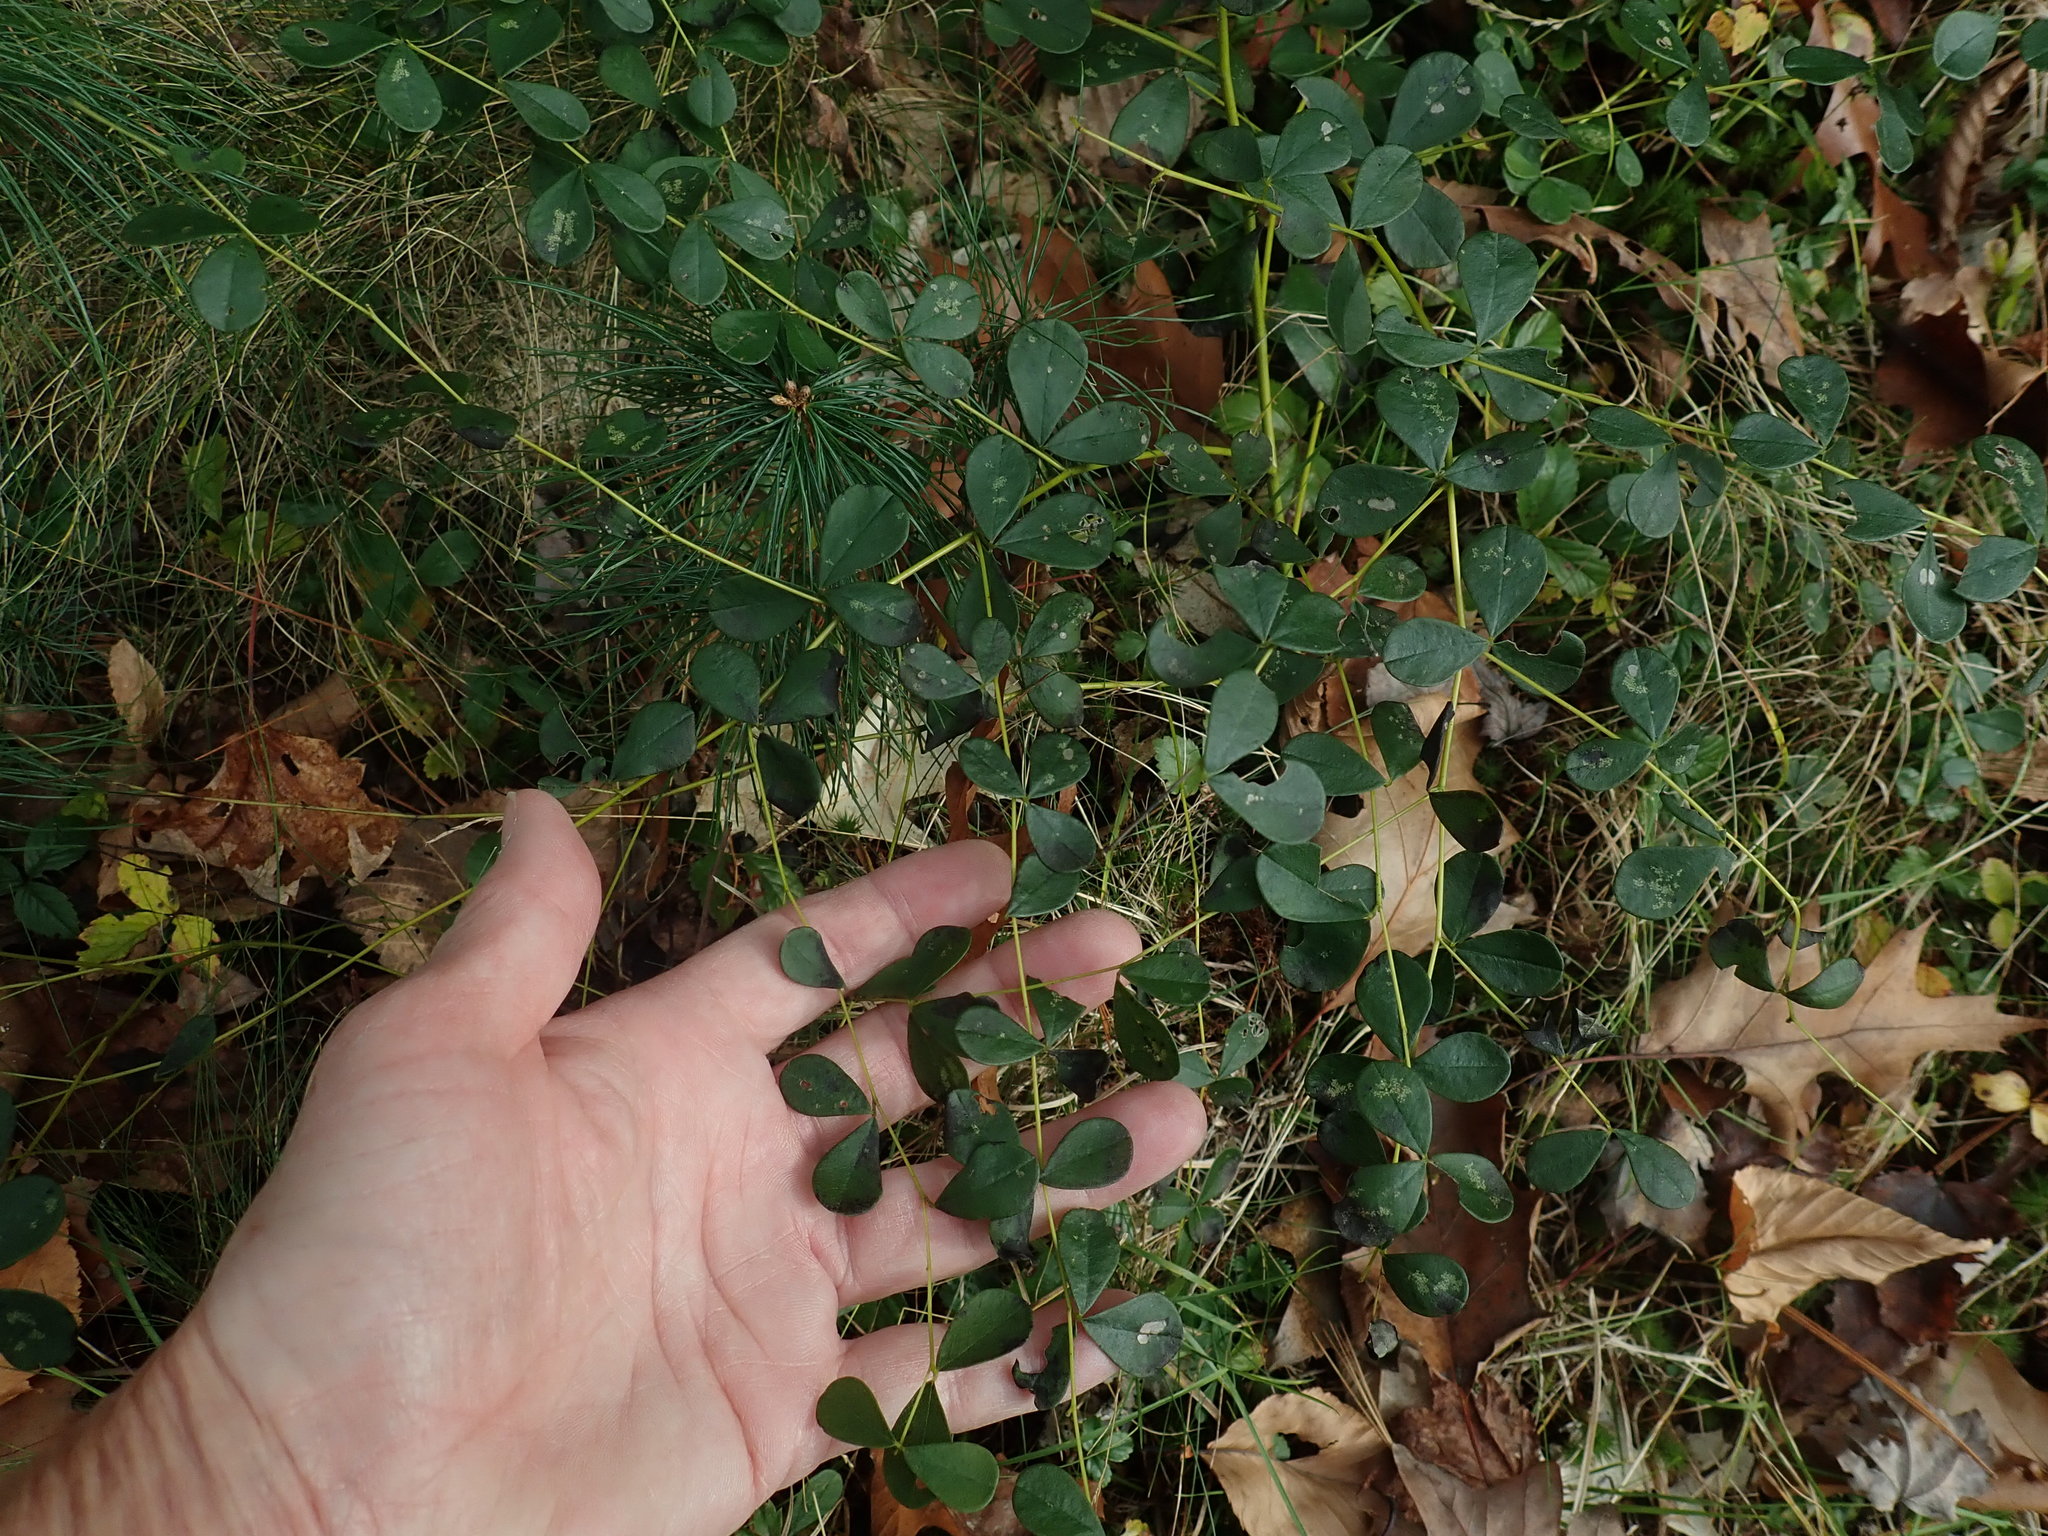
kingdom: Plantae
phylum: Tracheophyta
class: Magnoliopsida
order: Fabales
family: Fabaceae
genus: Baptisia
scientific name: Baptisia tinctoria
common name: Wild indigo
